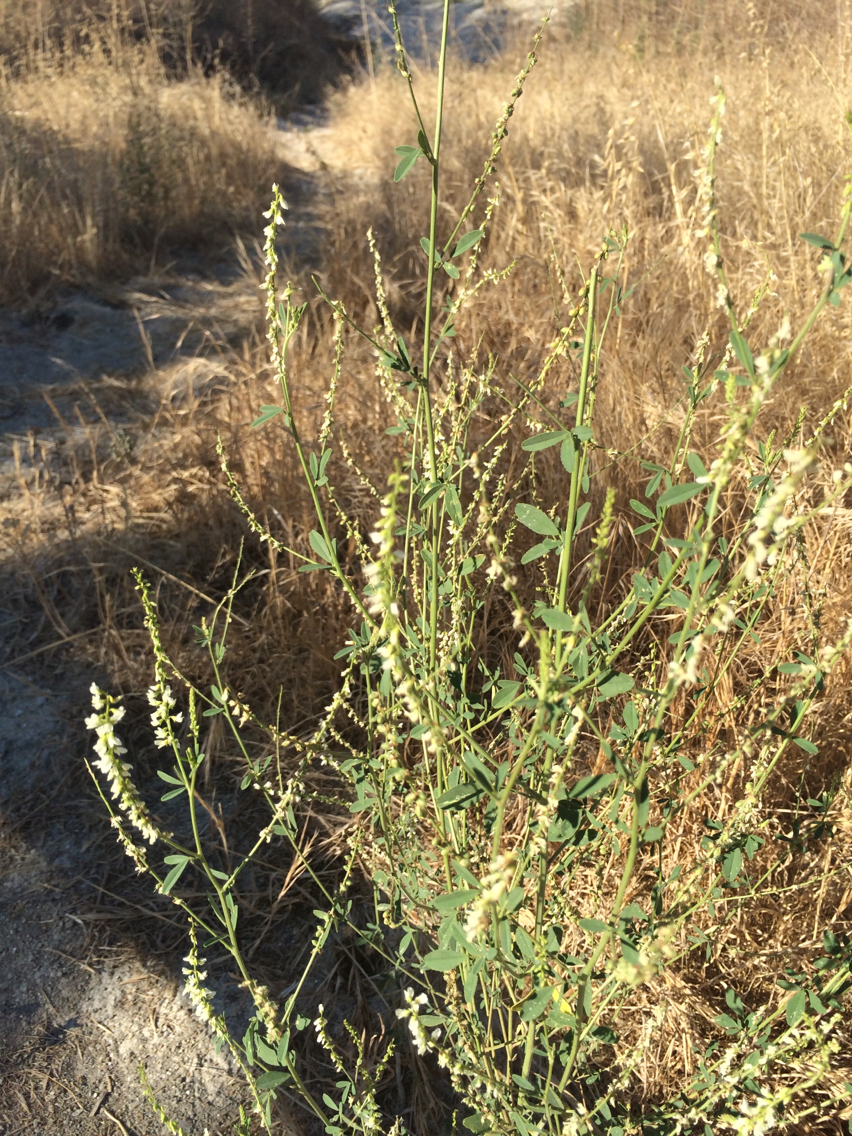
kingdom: Plantae
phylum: Tracheophyta
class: Magnoliopsida
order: Fabales
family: Fabaceae
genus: Melilotus
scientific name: Melilotus albus
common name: White melilot
